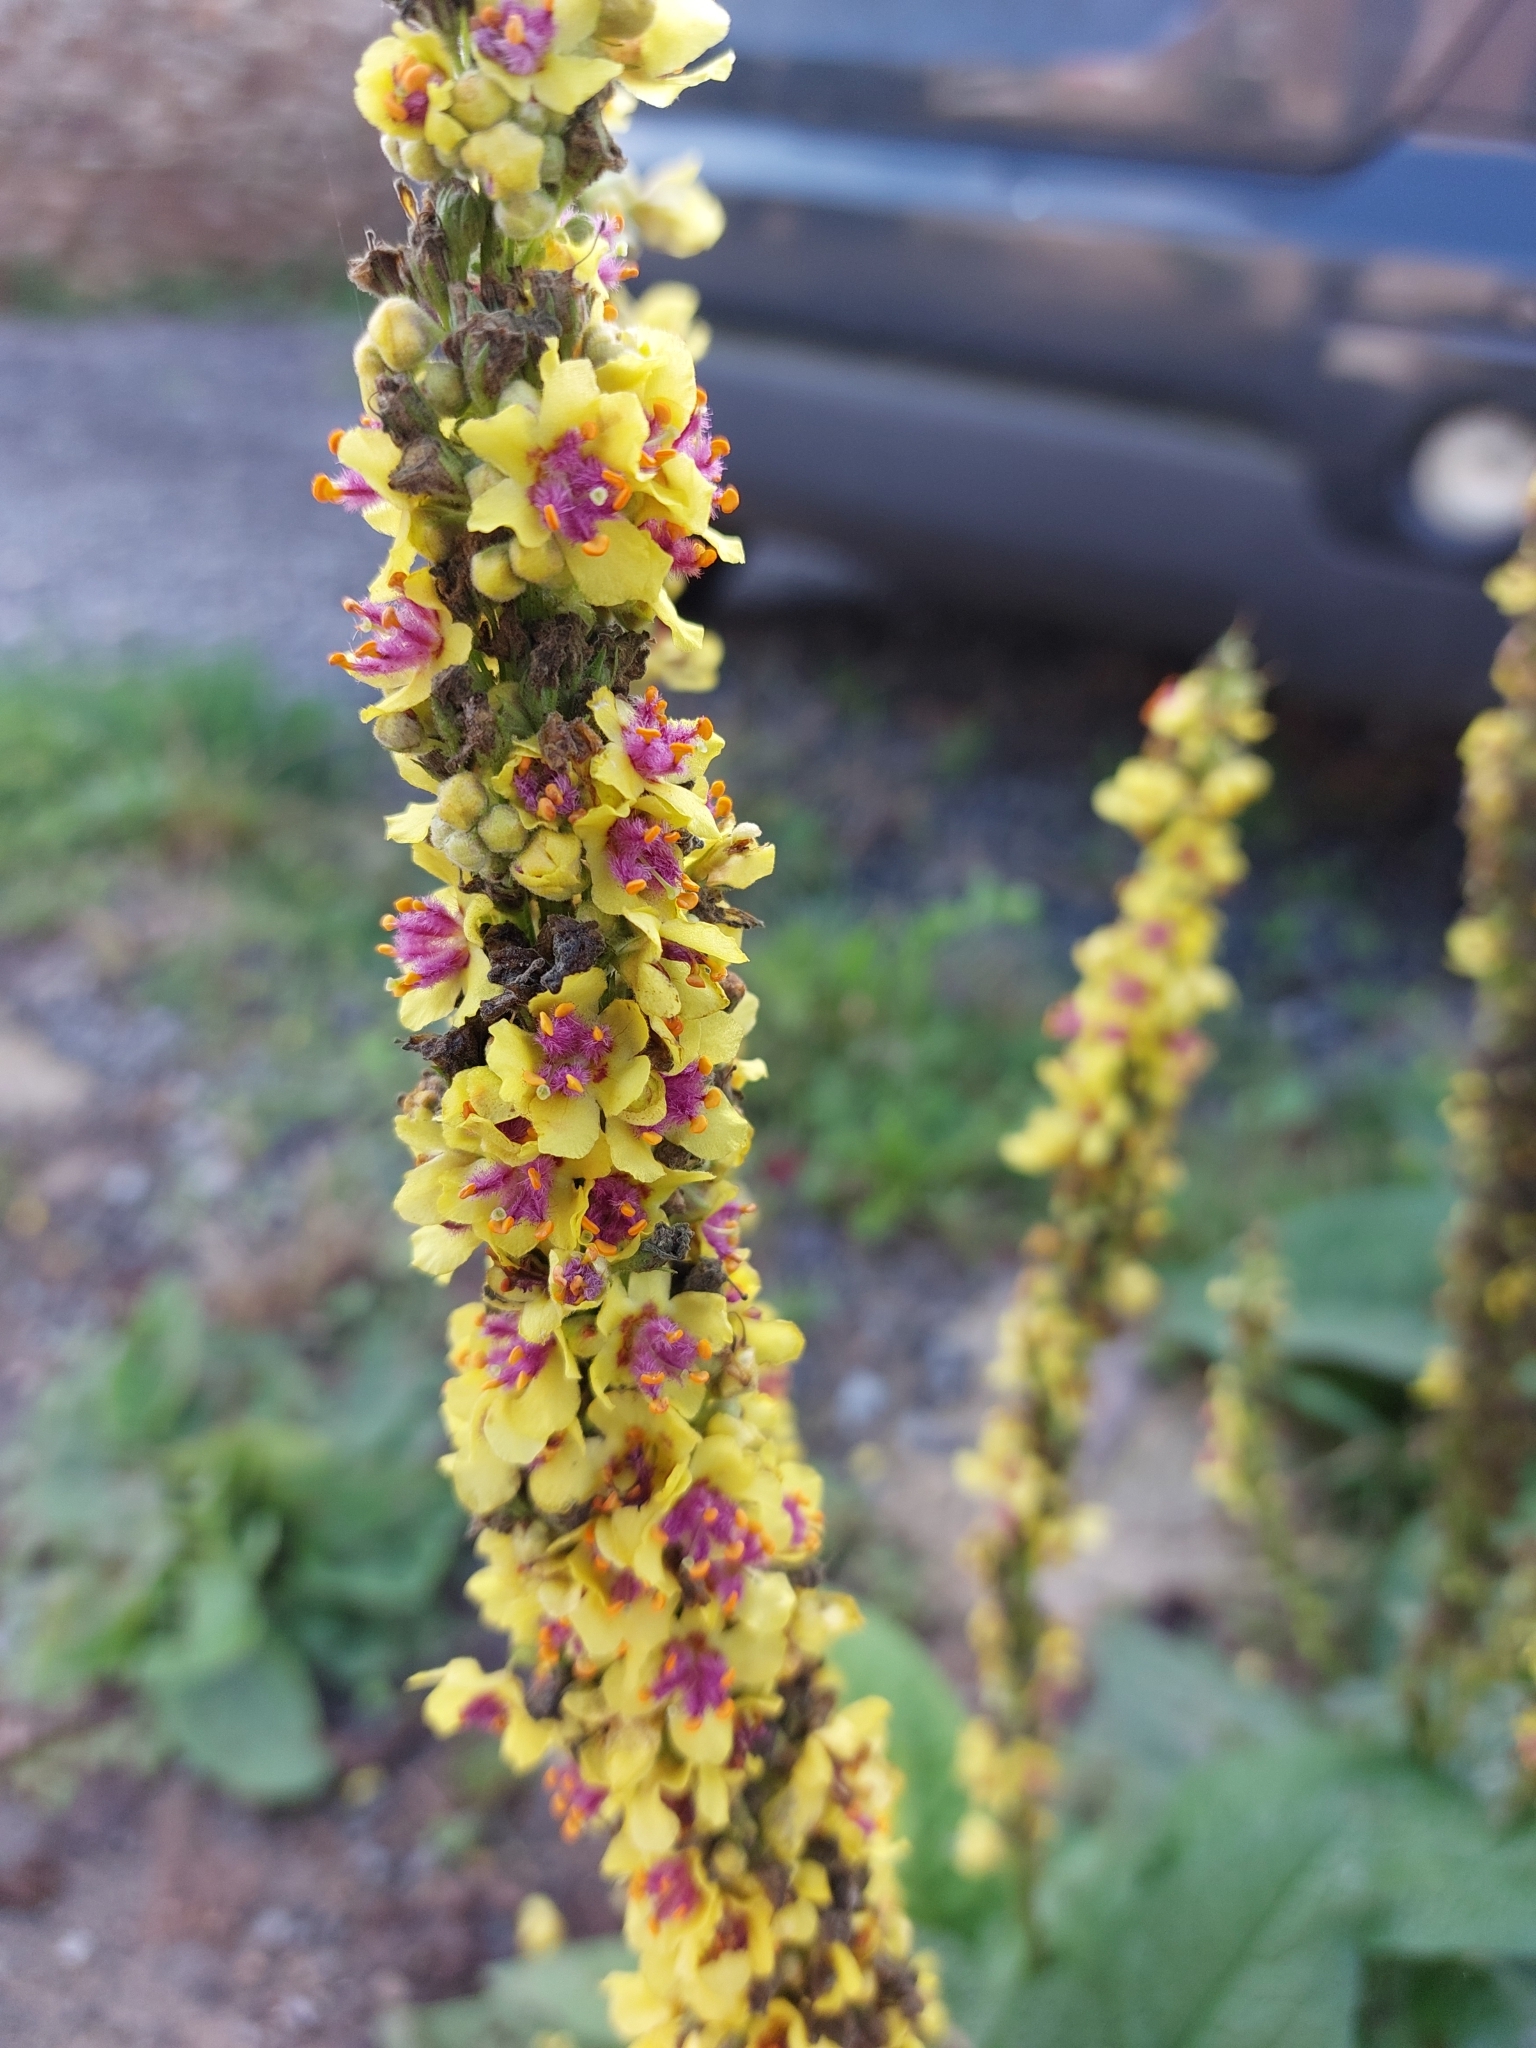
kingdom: Plantae
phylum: Tracheophyta
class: Magnoliopsida
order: Lamiales
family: Scrophulariaceae
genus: Verbascum
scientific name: Verbascum nigrum
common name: Dark mullein
